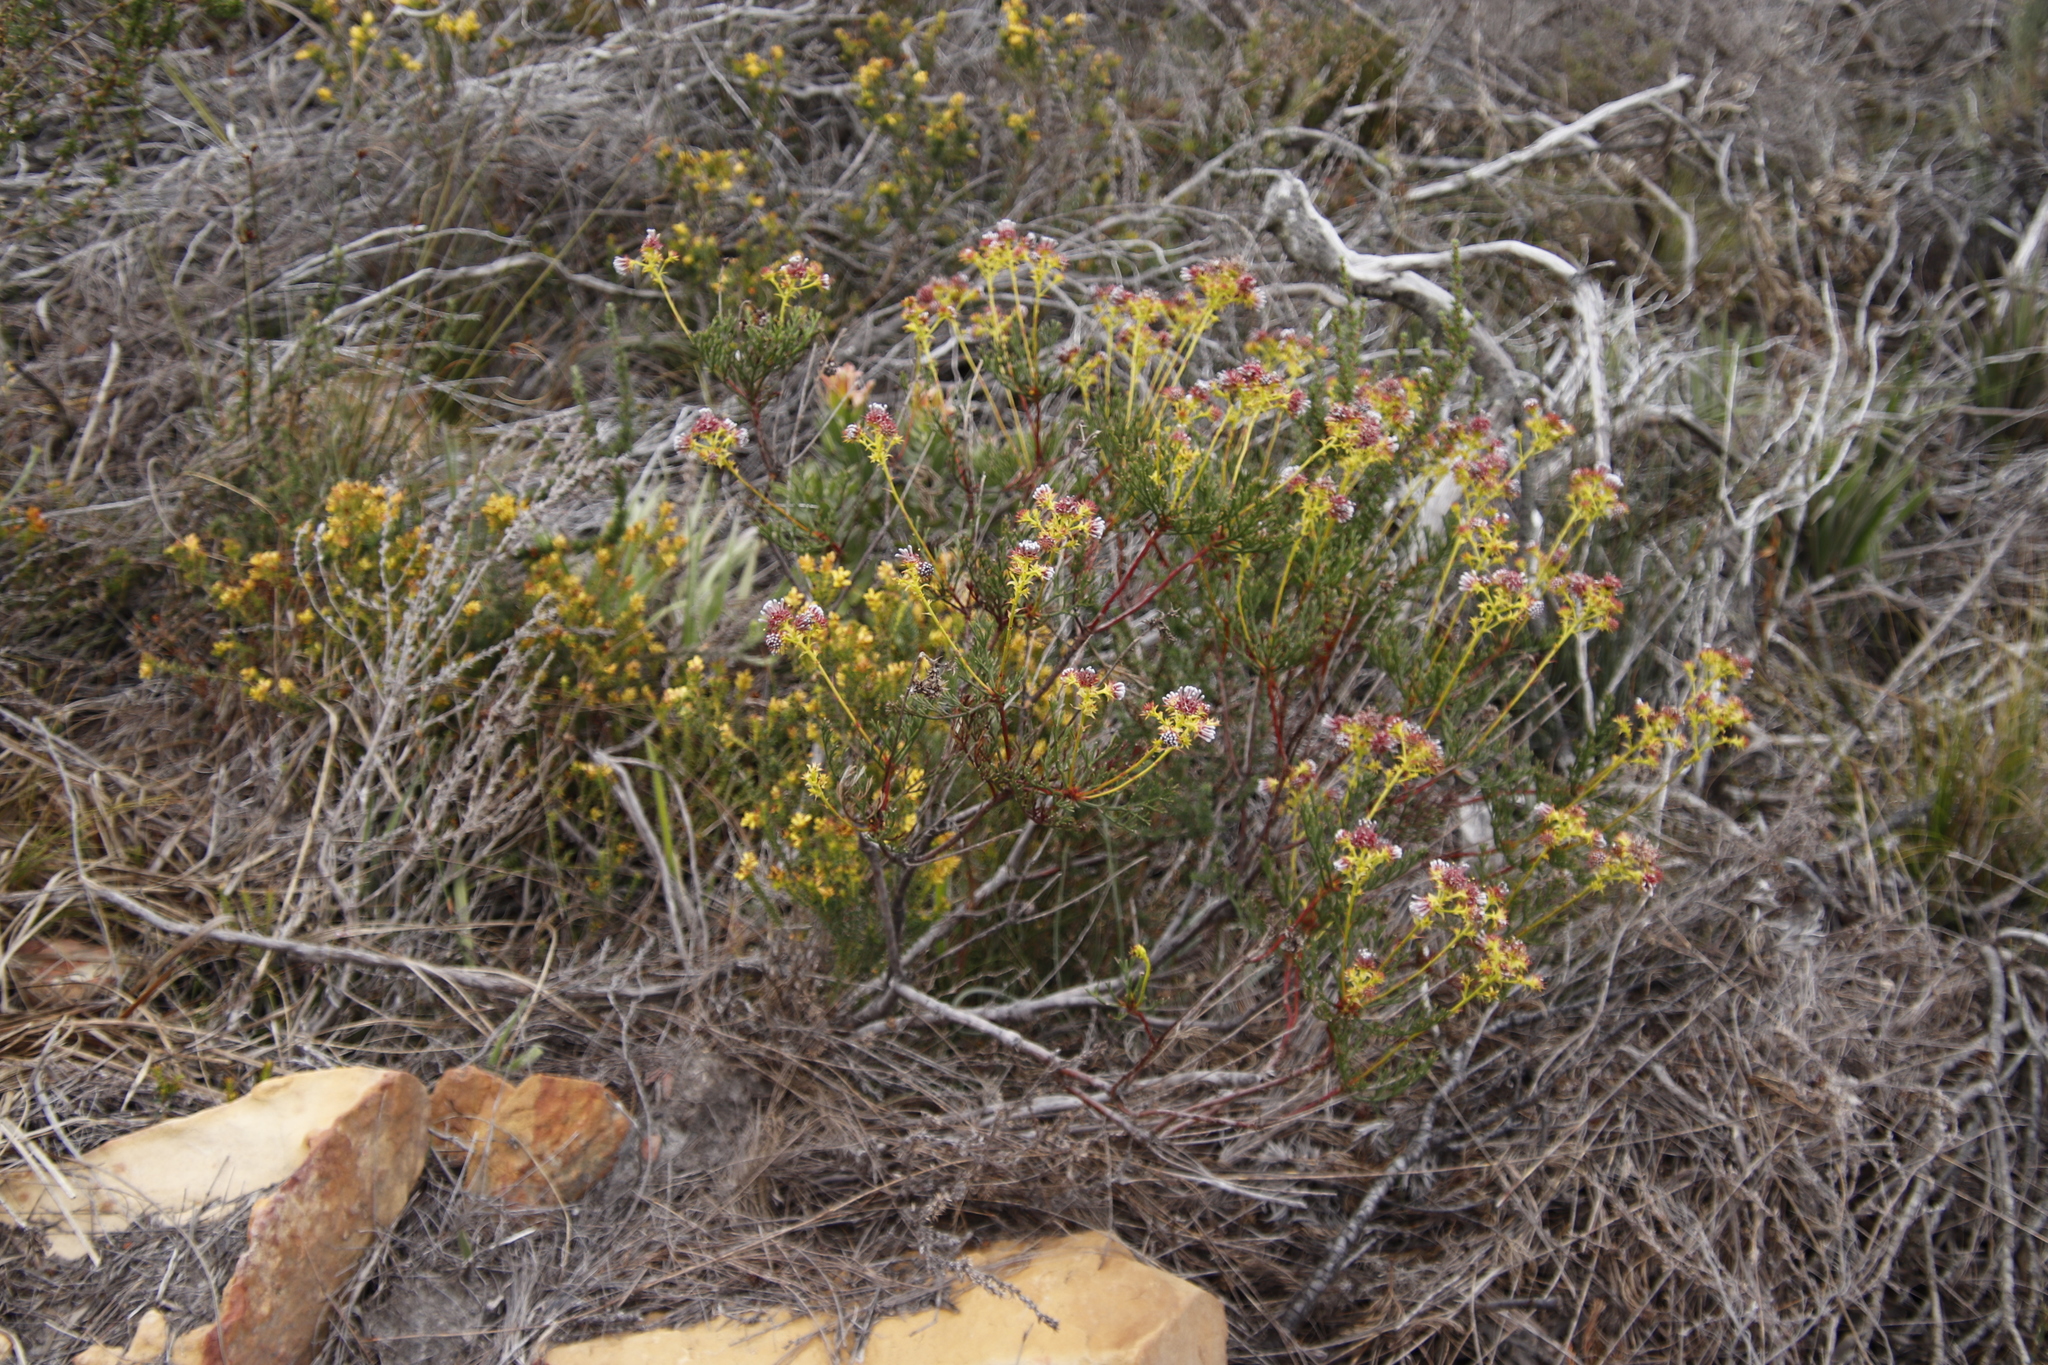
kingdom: Plantae
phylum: Tracheophyta
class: Magnoliopsida
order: Proteales
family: Proteaceae
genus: Serruria
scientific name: Serruria elongata
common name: Long-stalk spiderhead
